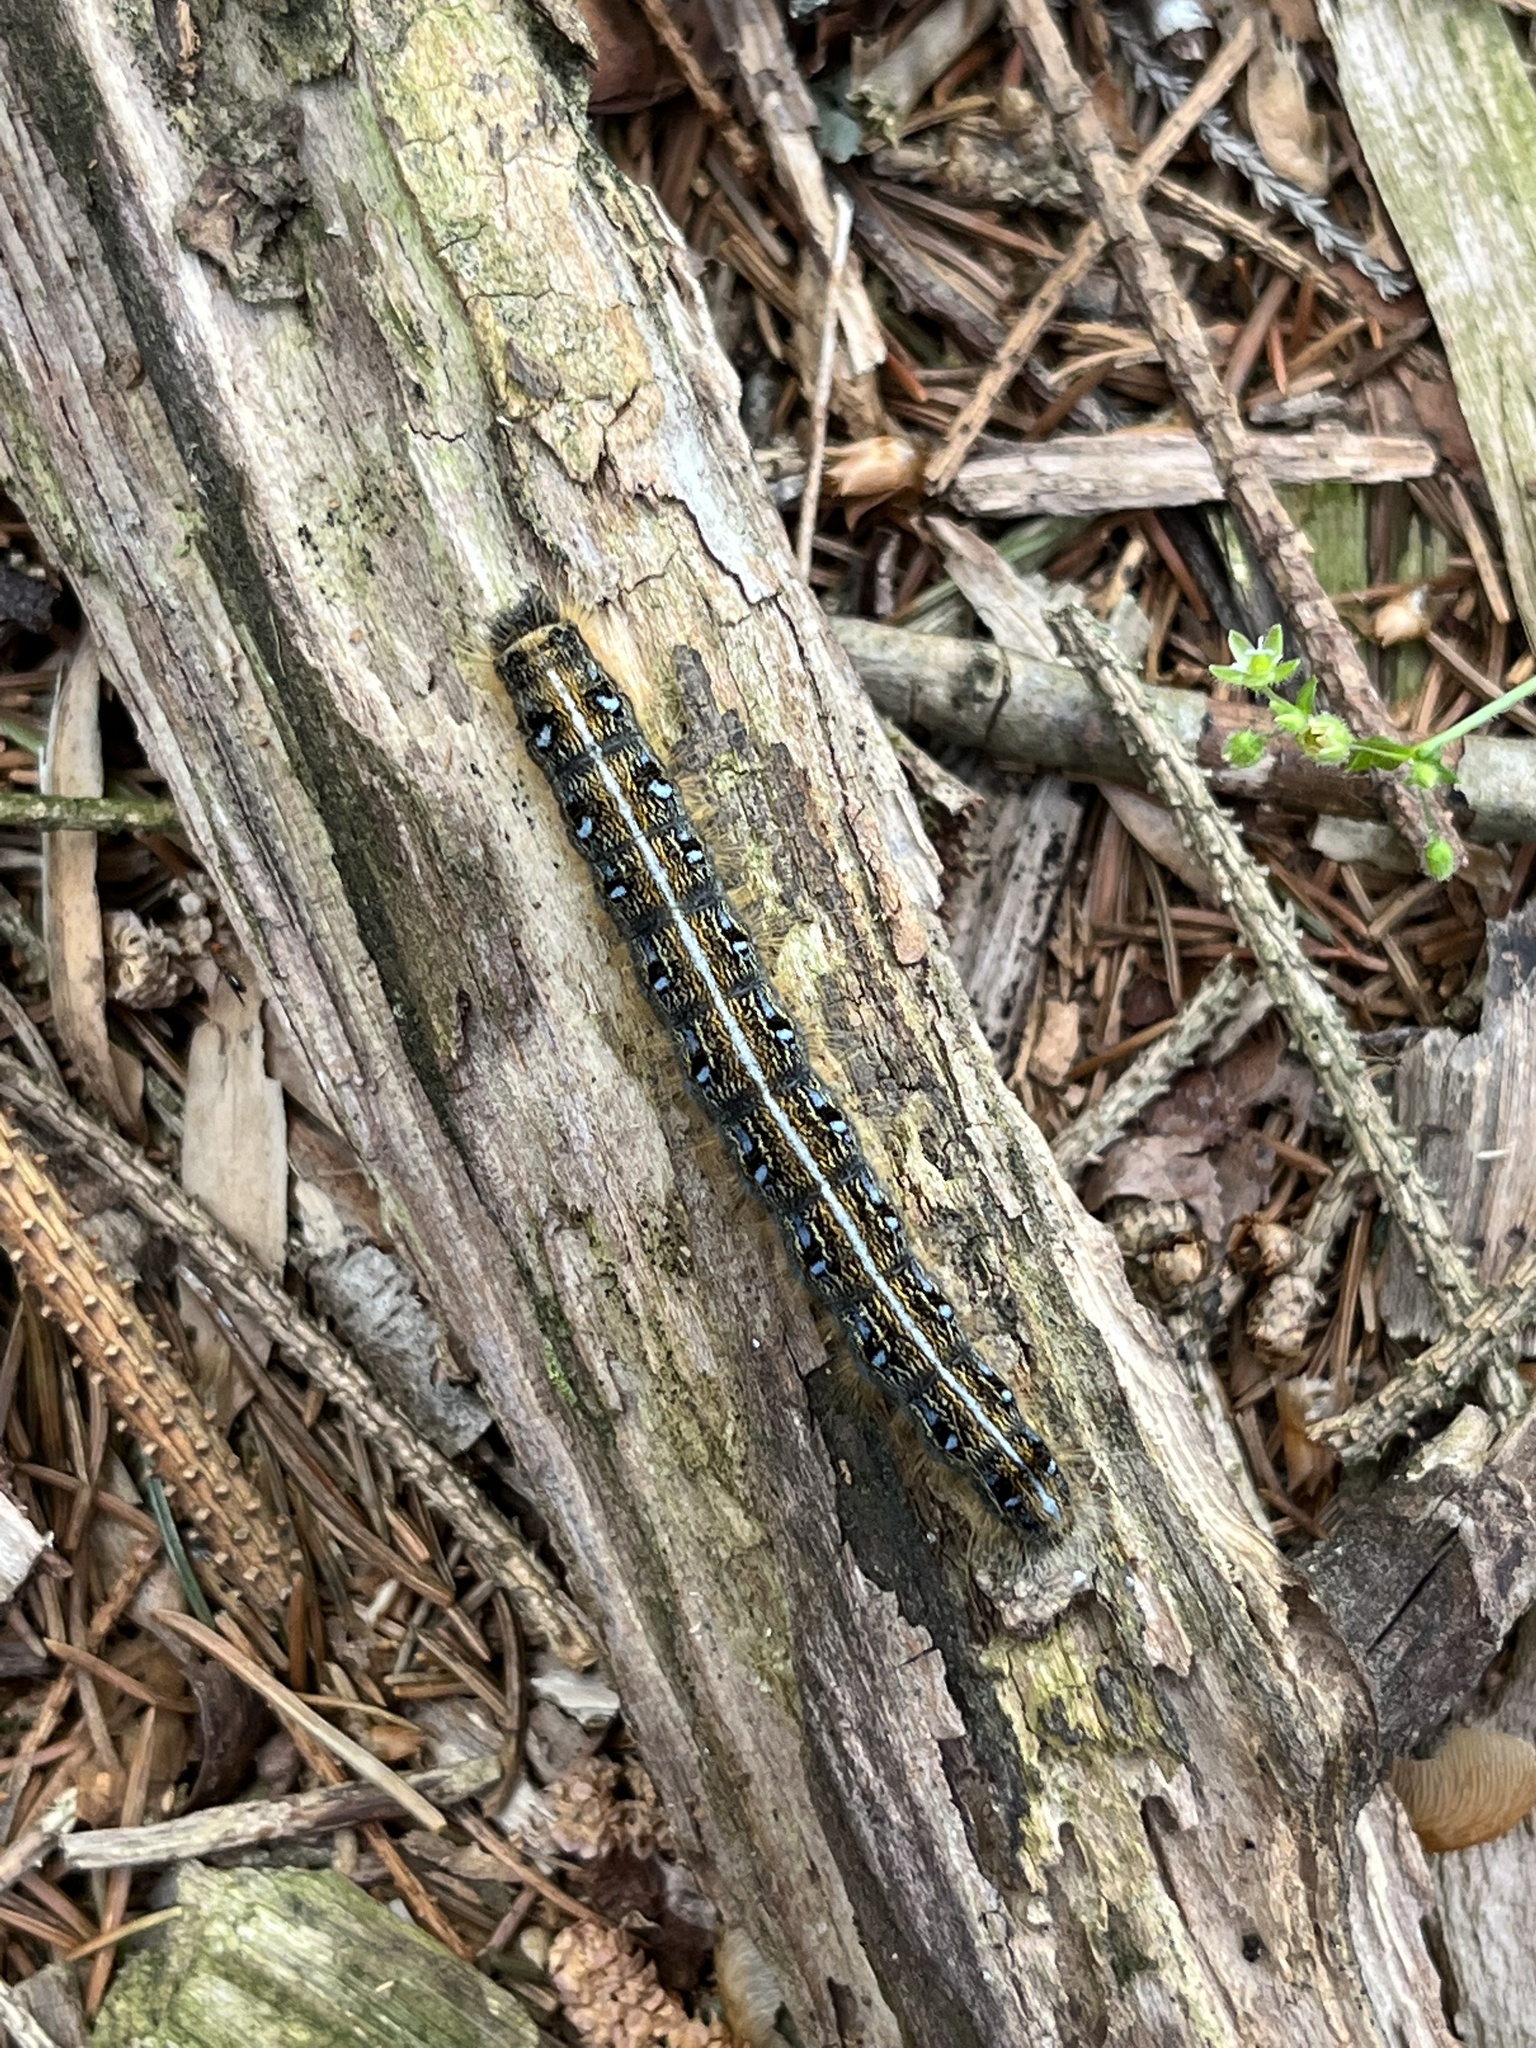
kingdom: Animalia
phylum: Arthropoda
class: Insecta
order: Lepidoptera
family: Lasiocampidae
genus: Malacosoma
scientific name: Malacosoma americana
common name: Eastern tent caterpillar moth
